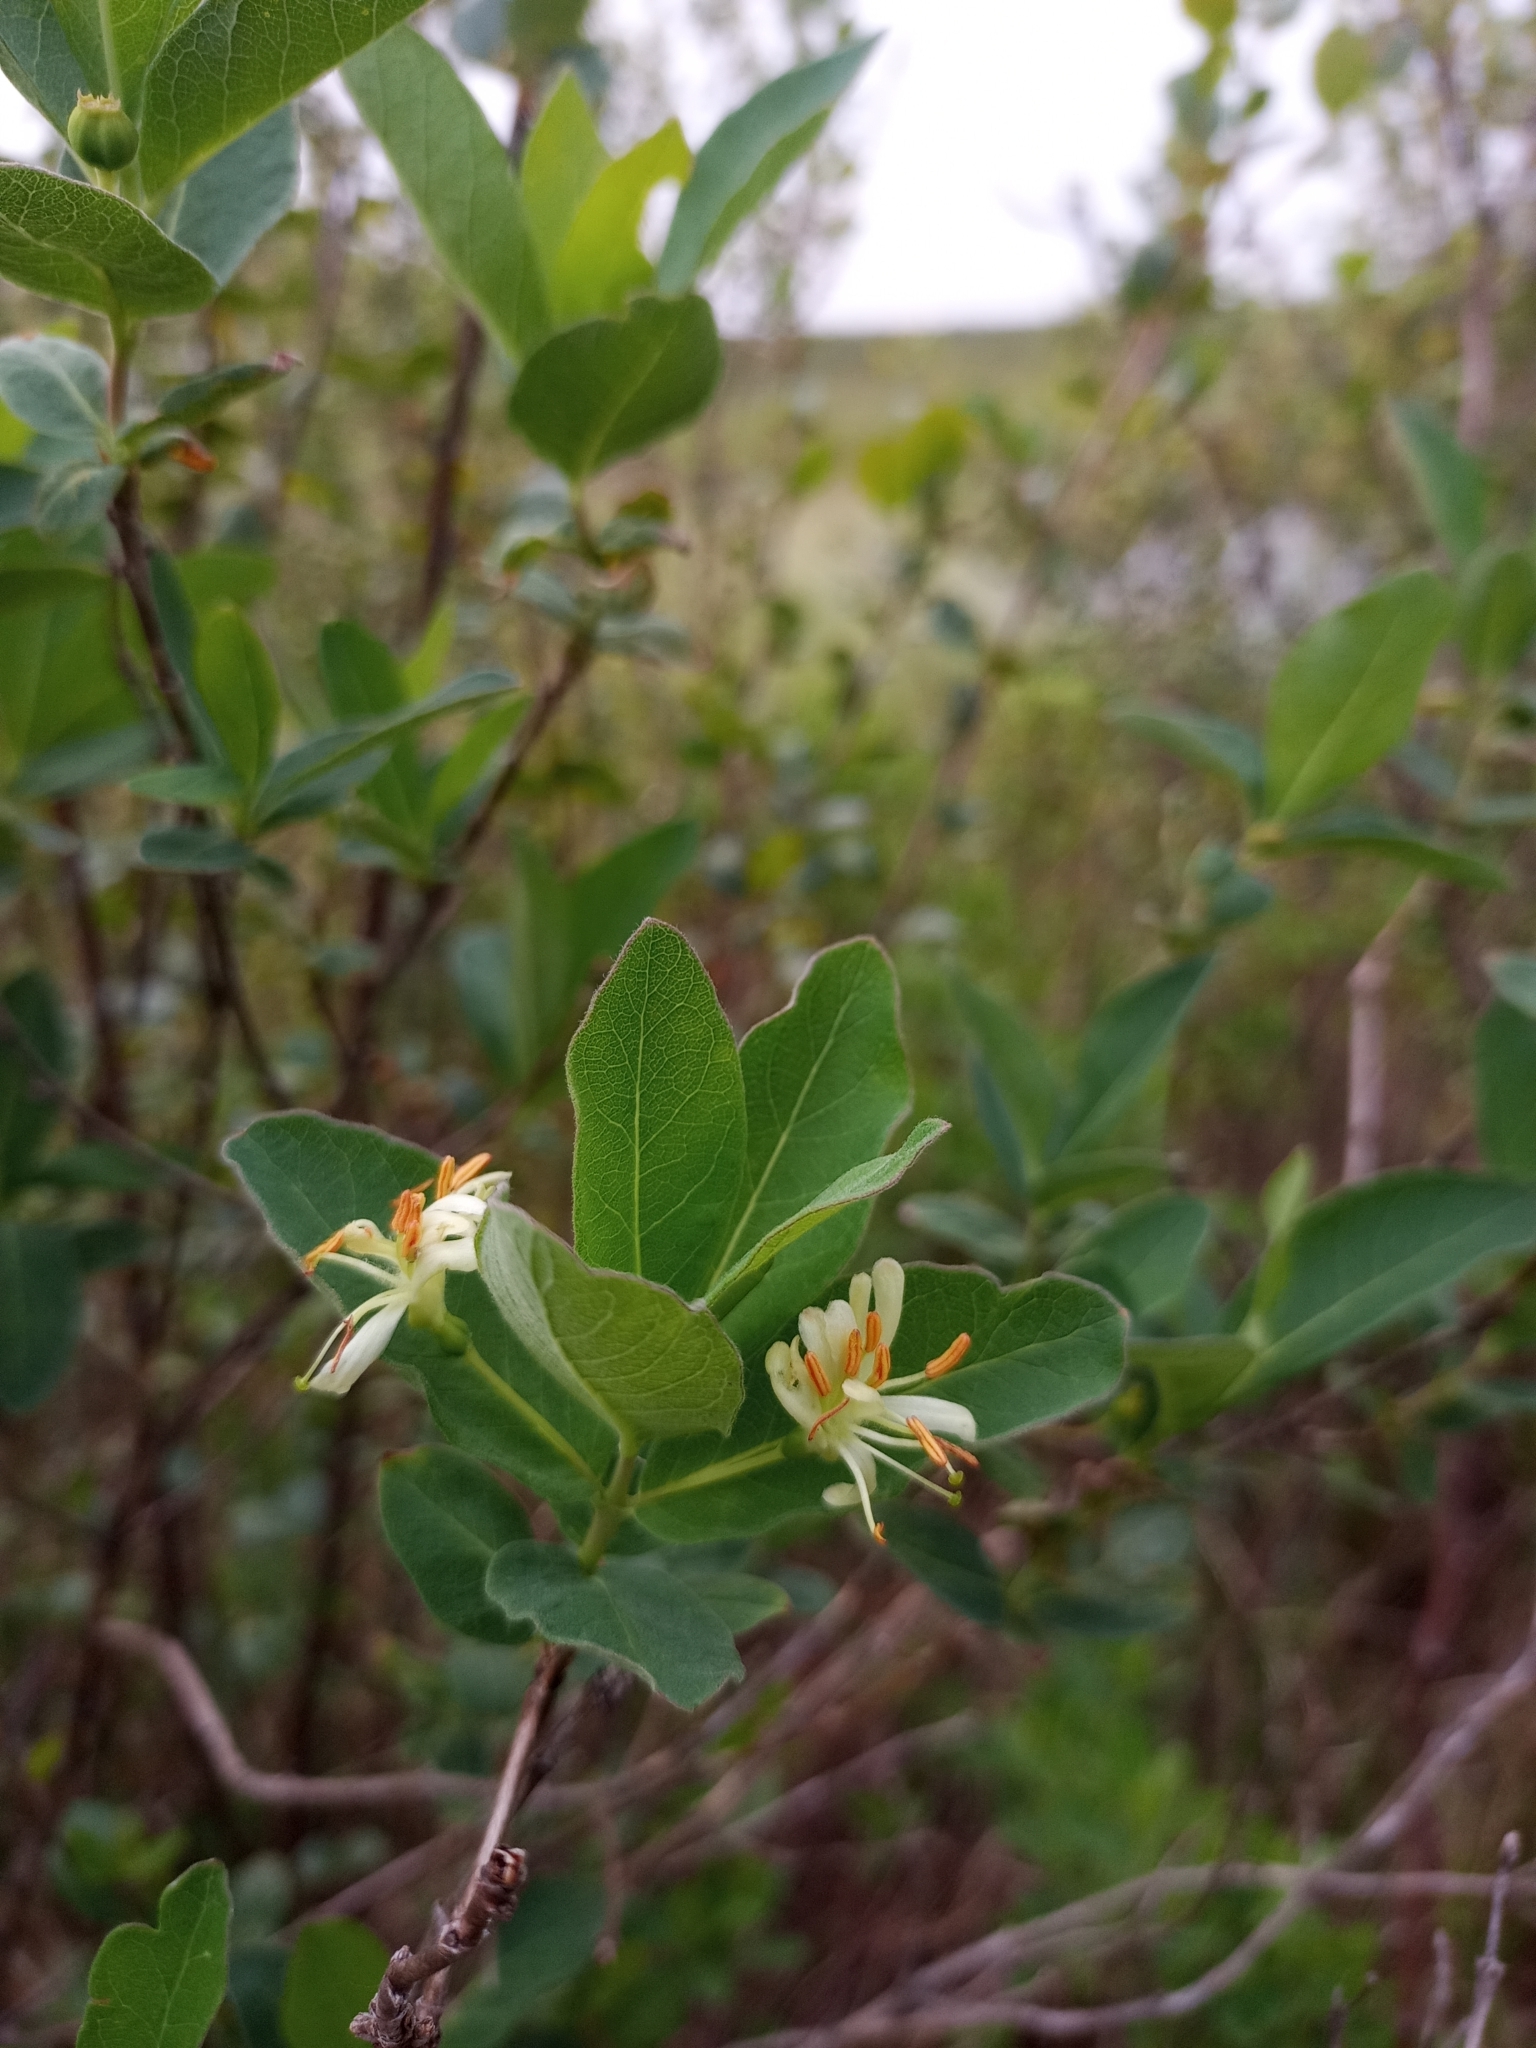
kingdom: Plantae
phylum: Tracheophyta
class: Magnoliopsida
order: Dipsacales
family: Caprifoliaceae
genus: Lonicera
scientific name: Lonicera oblongifolia
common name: Swamp fly honeysuckle
